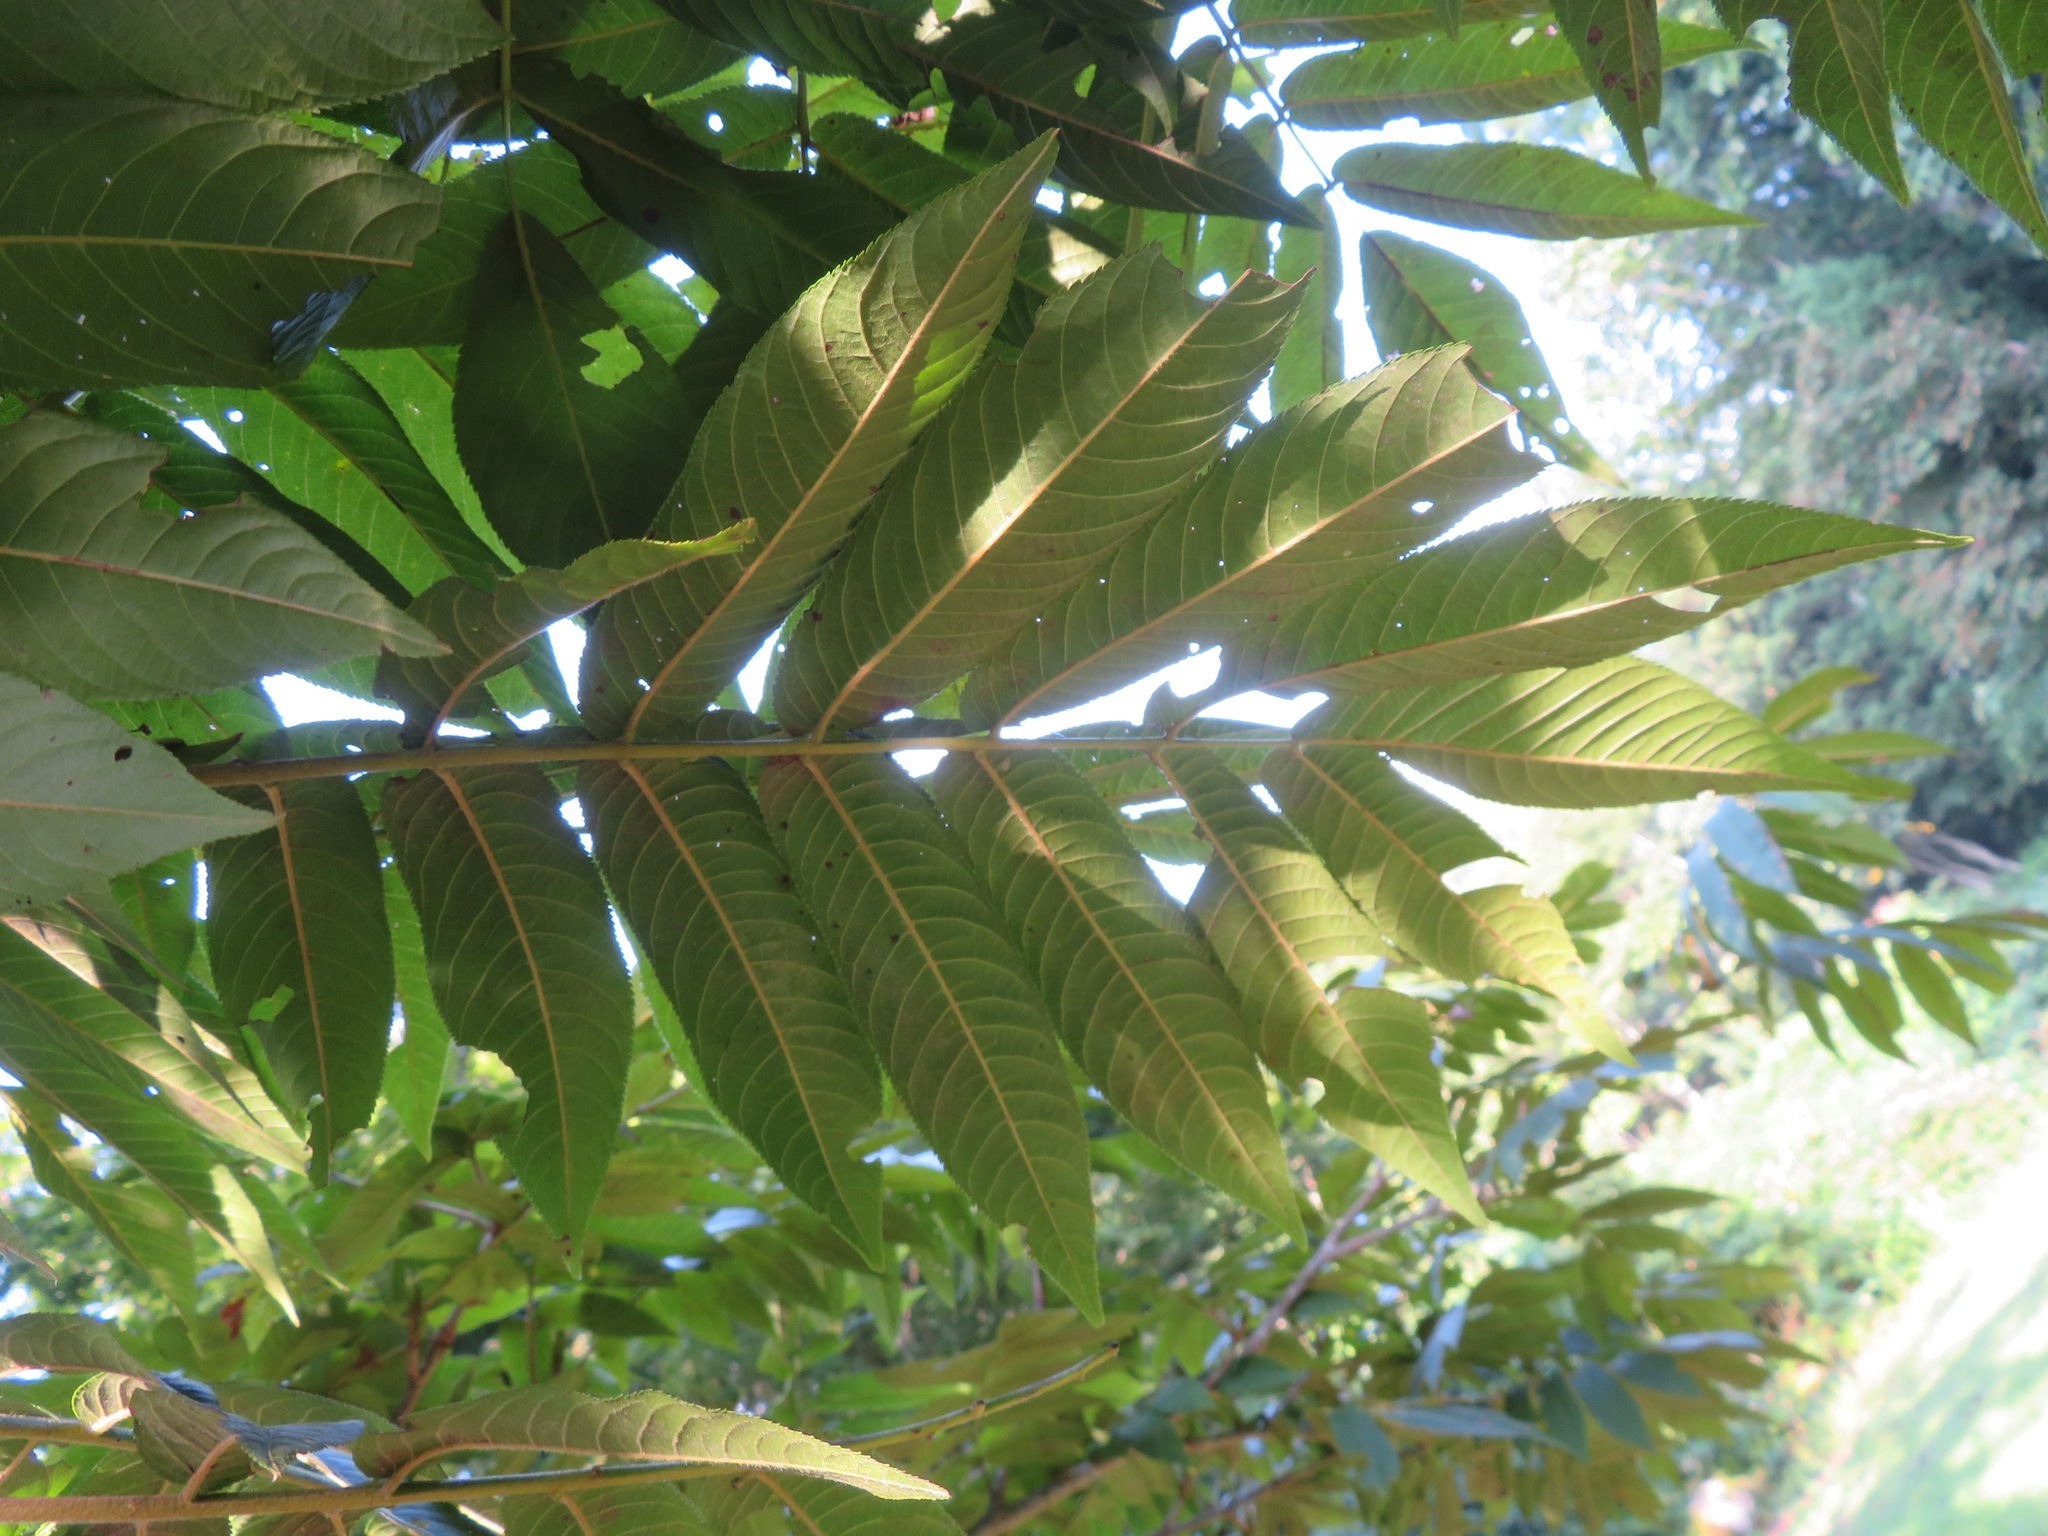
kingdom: Plantae
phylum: Tracheophyta
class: Magnoliopsida
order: Fagales
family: Juglandaceae
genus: Pterocarya
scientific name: Pterocarya rhoifolia
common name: Japanese wingnut
